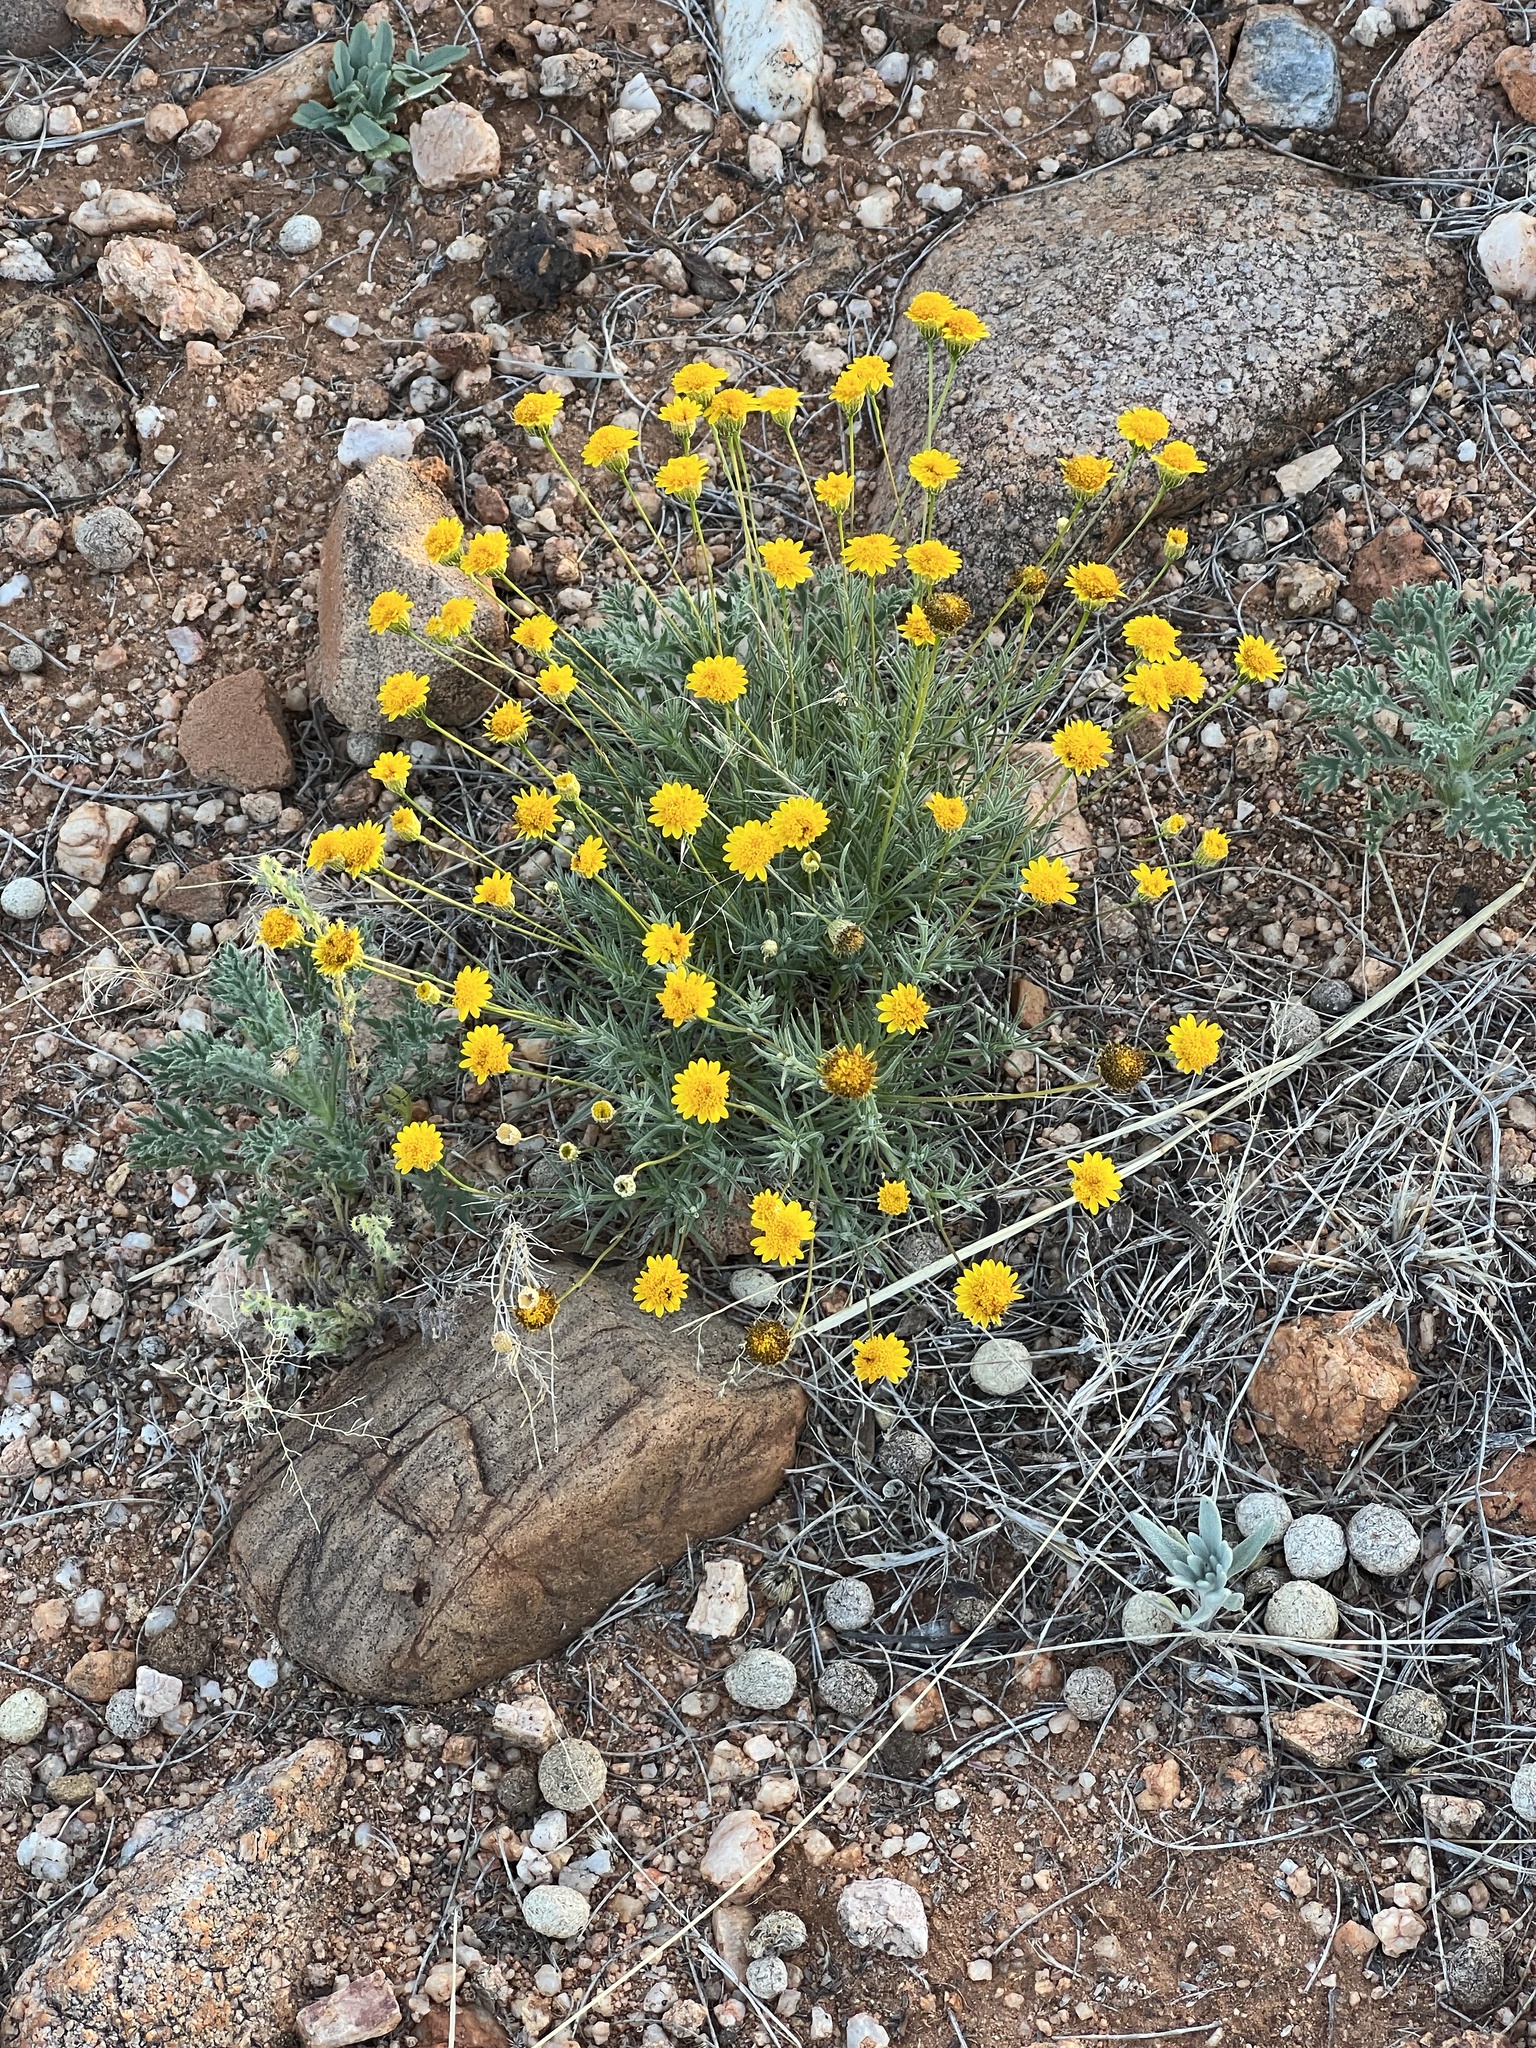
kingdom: Plantae
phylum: Tracheophyta
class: Magnoliopsida
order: Asterales
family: Asteraceae
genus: Thymophylla
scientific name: Thymophylla pentachaeta
